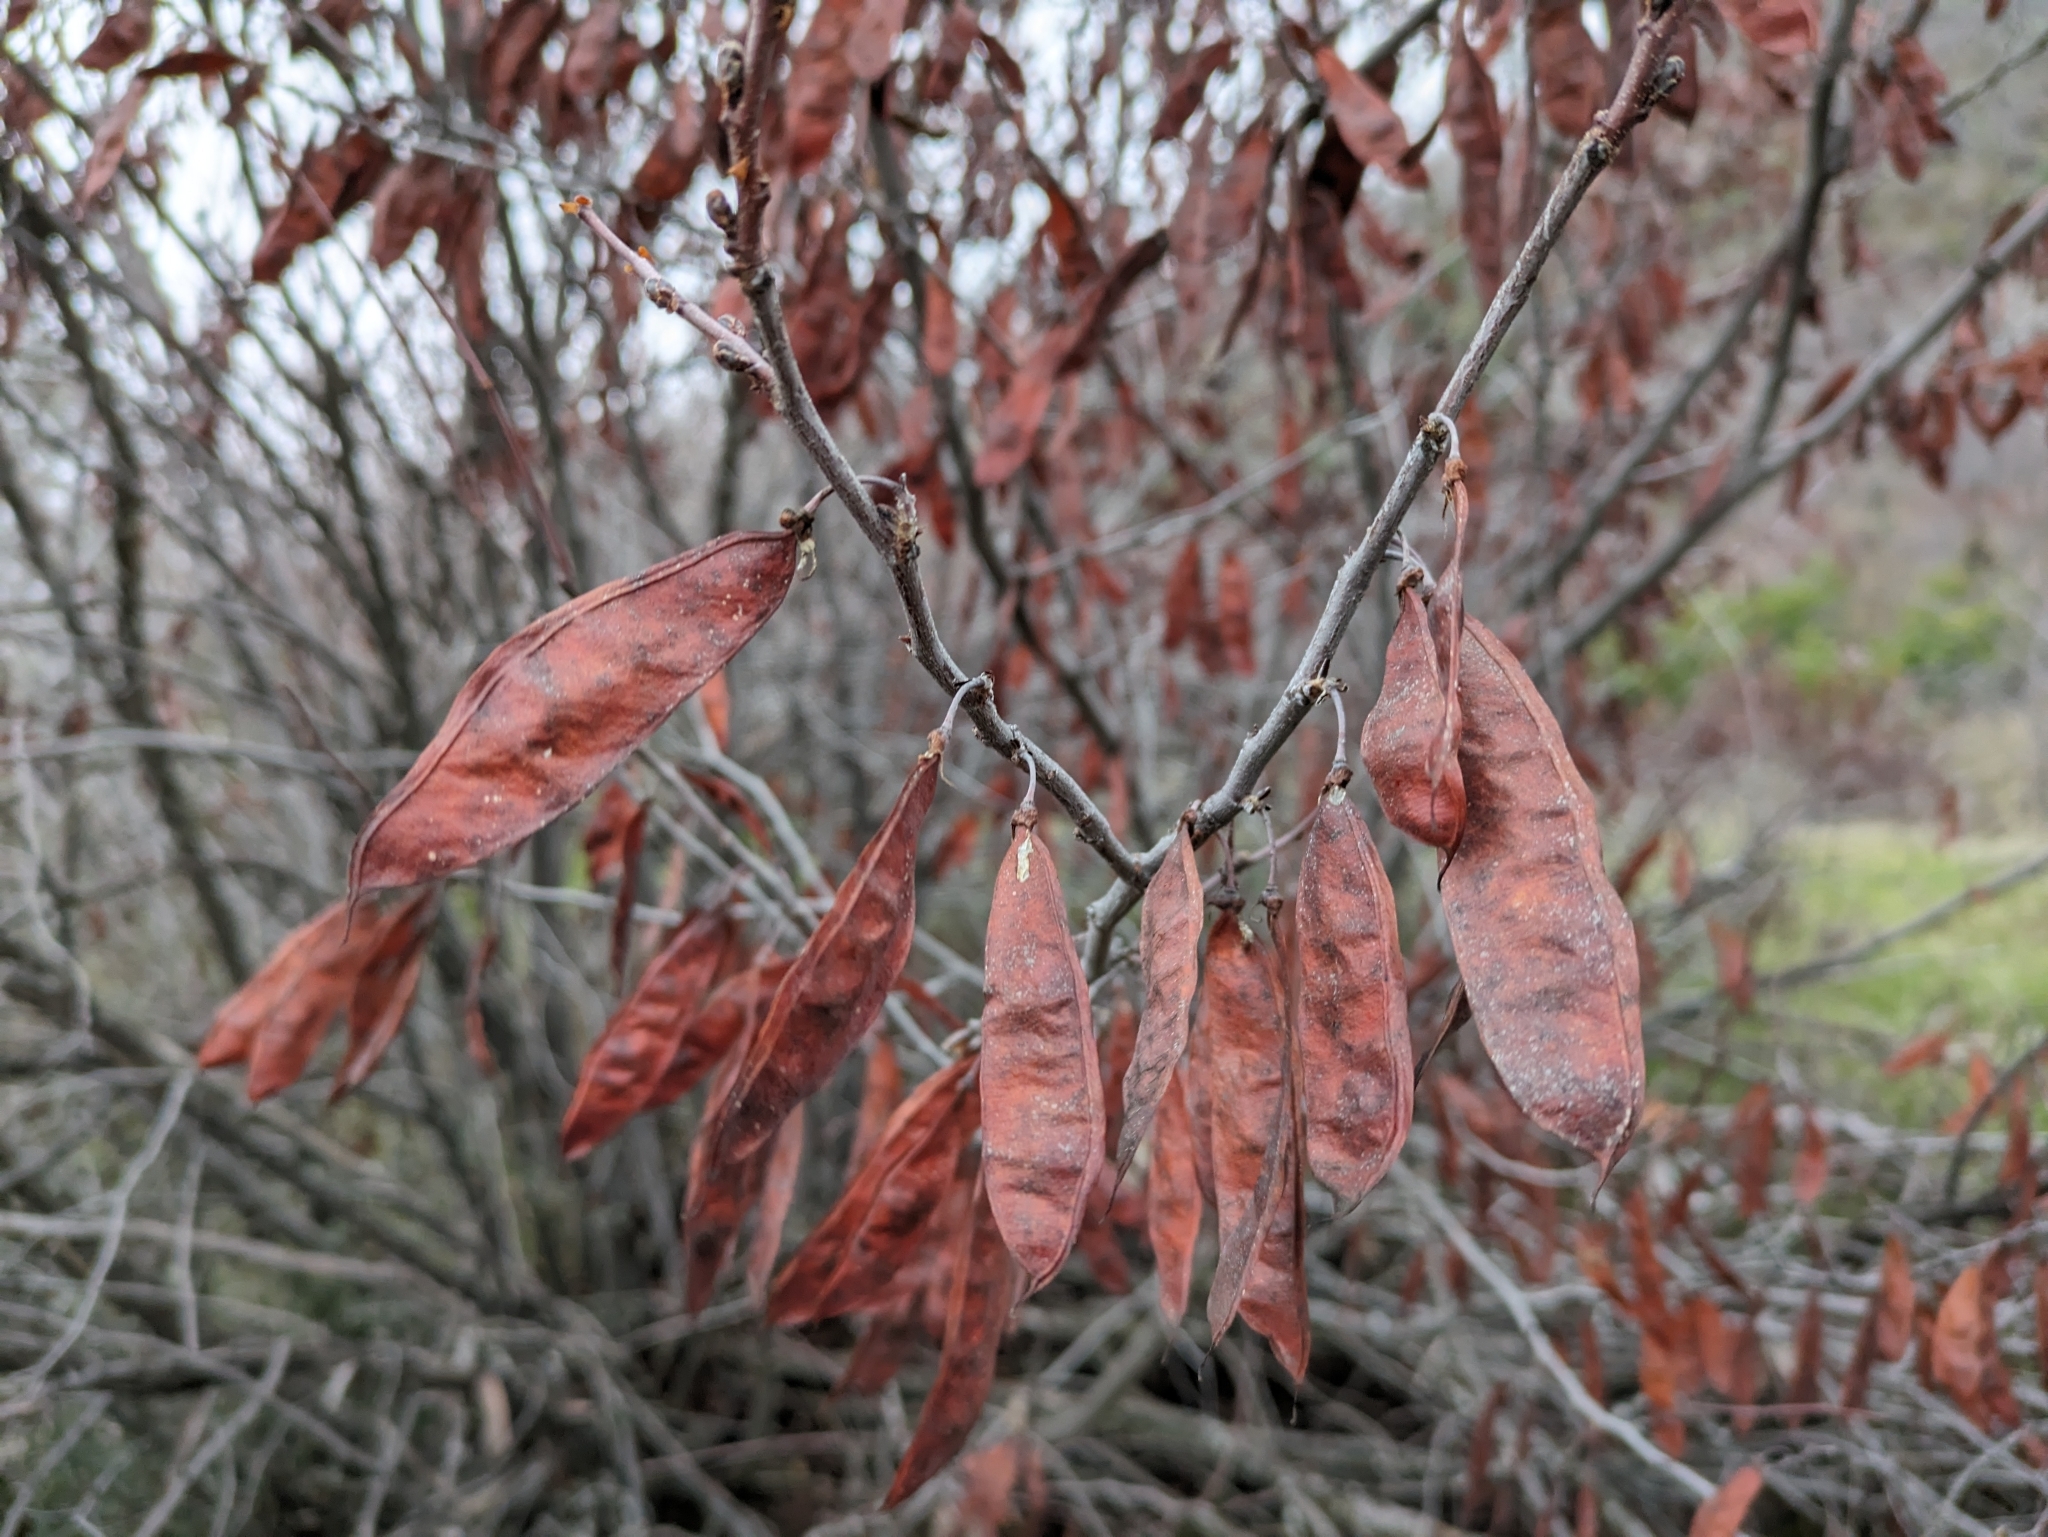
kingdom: Plantae
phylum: Tracheophyta
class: Magnoliopsida
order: Fabales
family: Fabaceae
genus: Cercis
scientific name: Cercis occidentalis
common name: California redbud
